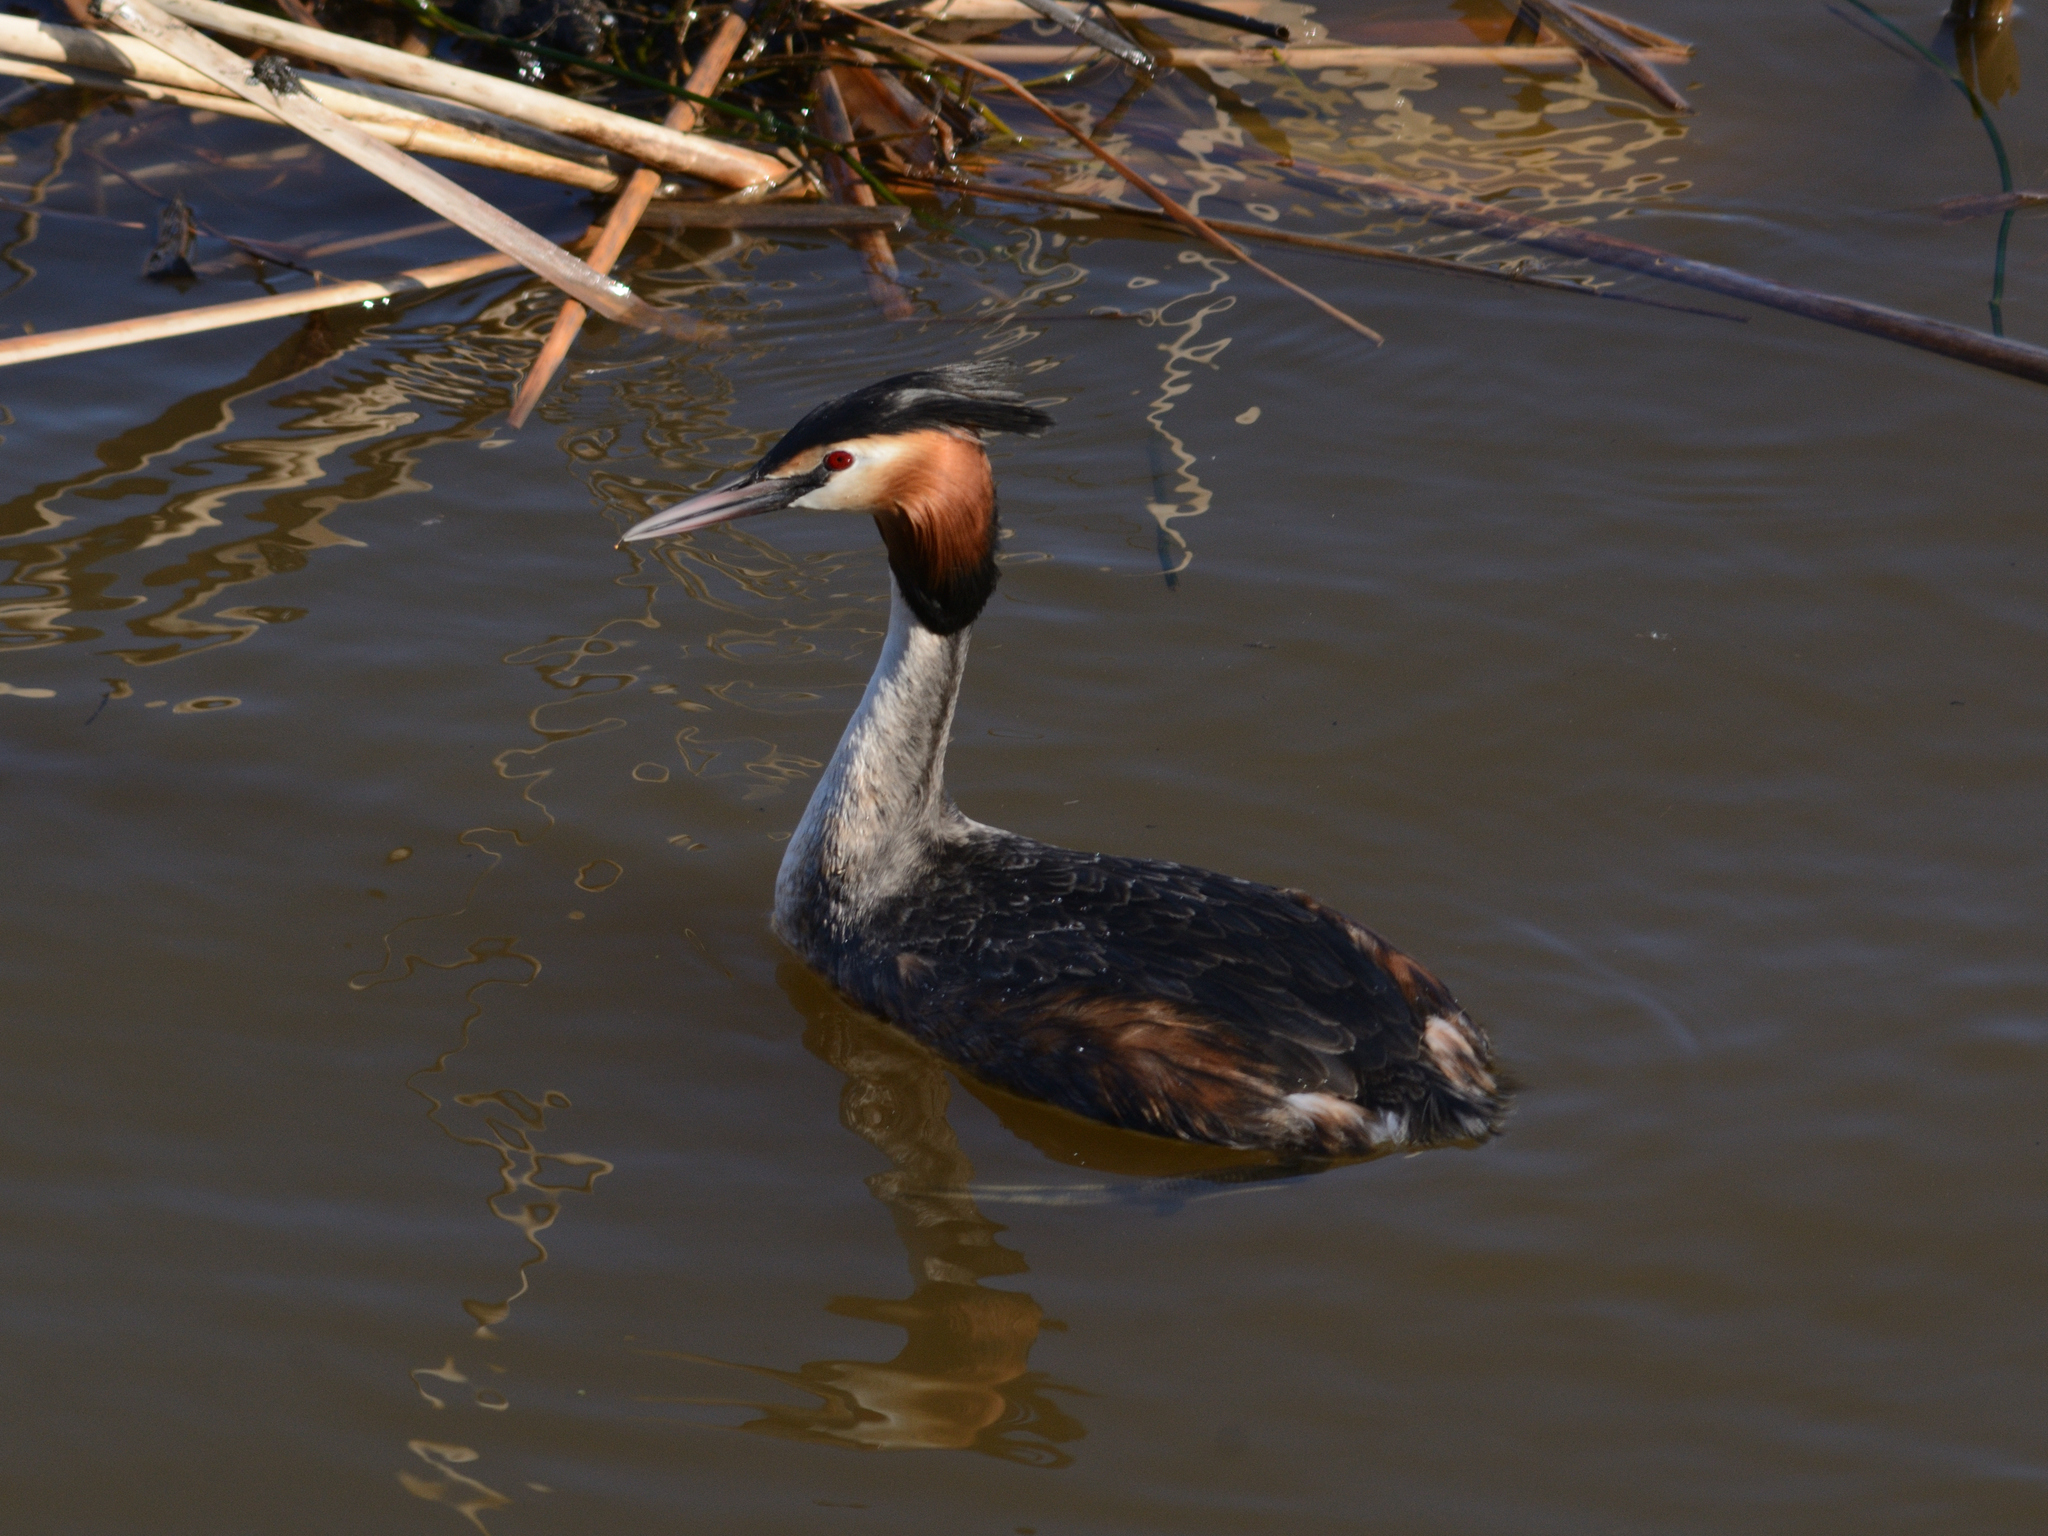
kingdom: Animalia
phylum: Chordata
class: Aves
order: Podicipediformes
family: Podicipedidae
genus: Podiceps
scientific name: Podiceps cristatus
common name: Great crested grebe
